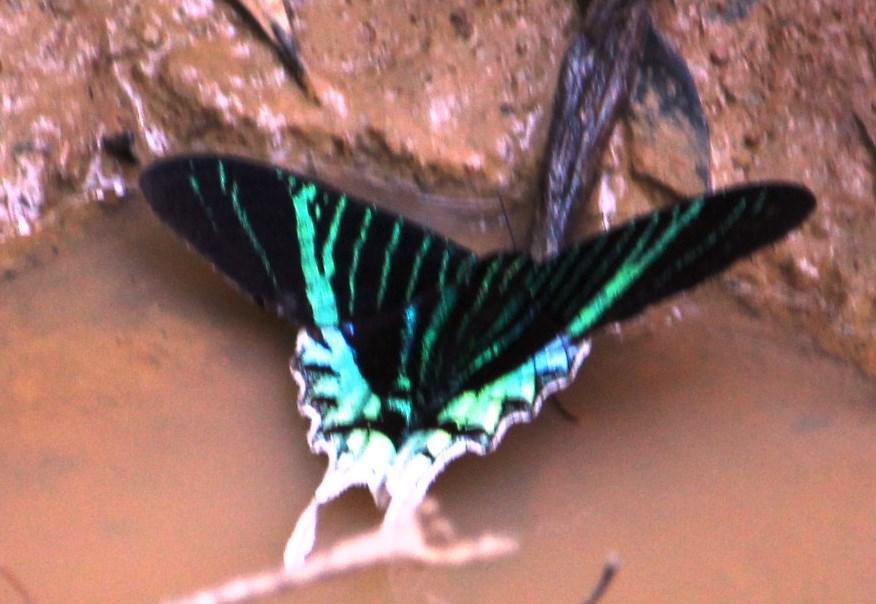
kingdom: Animalia
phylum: Arthropoda
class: Insecta
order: Lepidoptera
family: Uraniidae
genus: Urania
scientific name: Urania leilus
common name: Peacock moth
